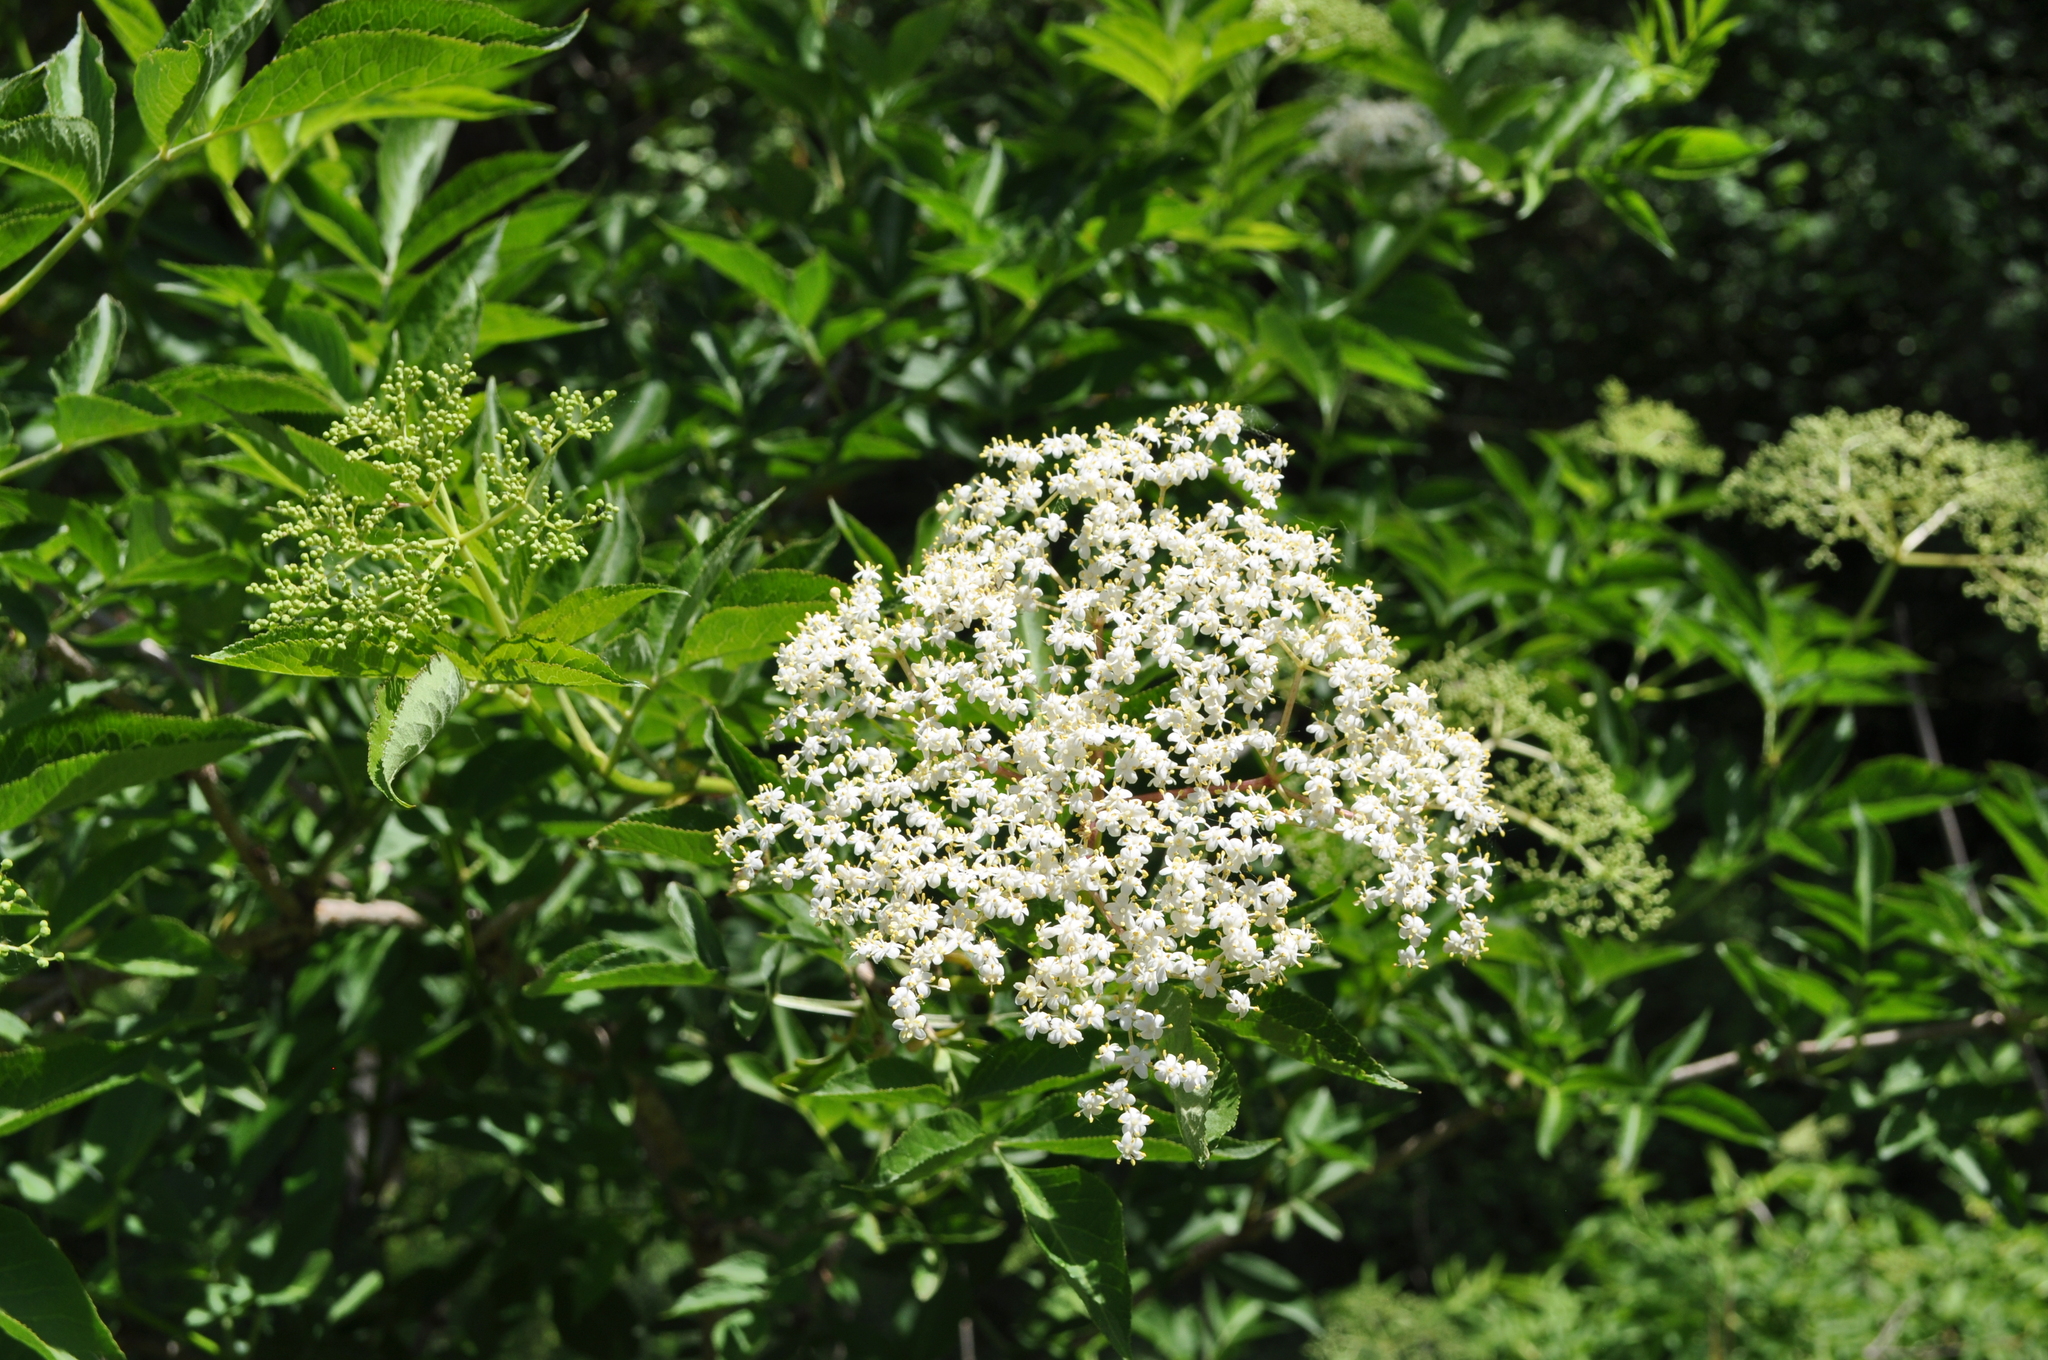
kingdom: Plantae
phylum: Tracheophyta
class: Magnoliopsida
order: Dipsacales
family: Viburnaceae
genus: Sambucus
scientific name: Sambucus nigra
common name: Elder
